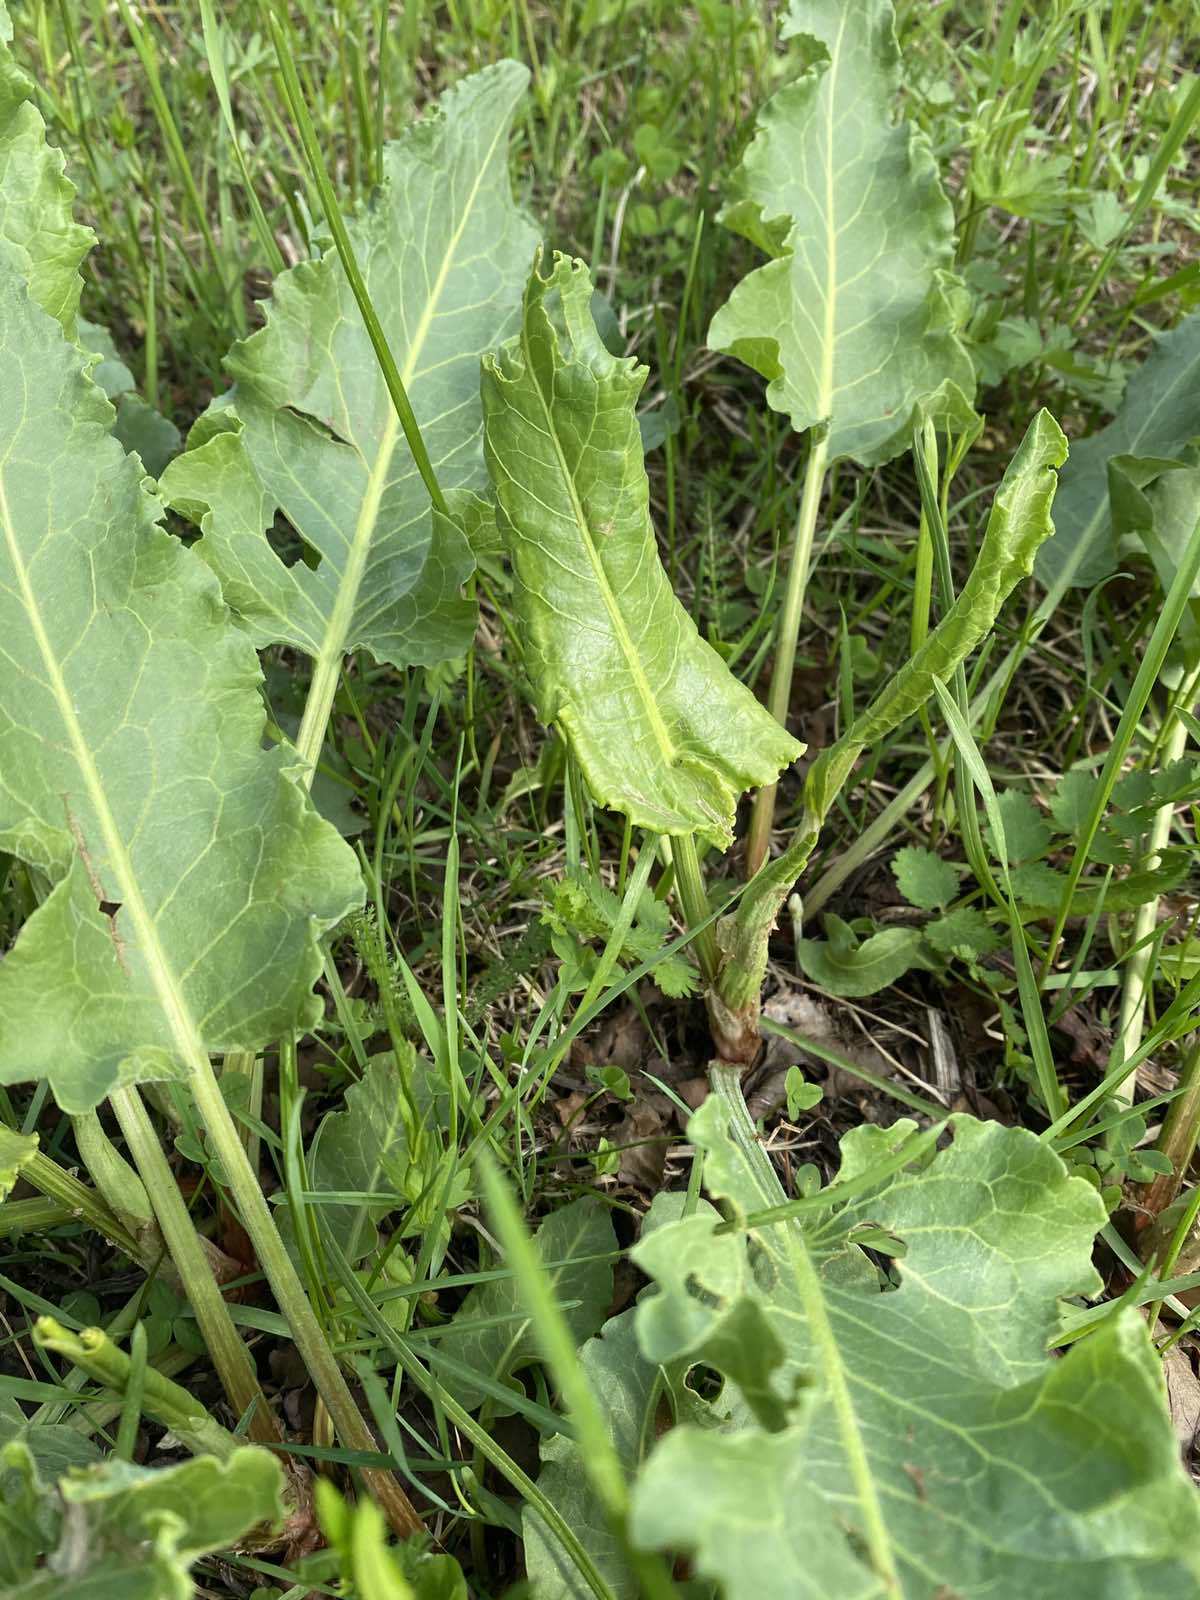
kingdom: Plantae
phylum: Tracheophyta
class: Magnoliopsida
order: Caryophyllales
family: Polygonaceae
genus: Rumex
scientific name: Rumex confertus
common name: Russian dock
